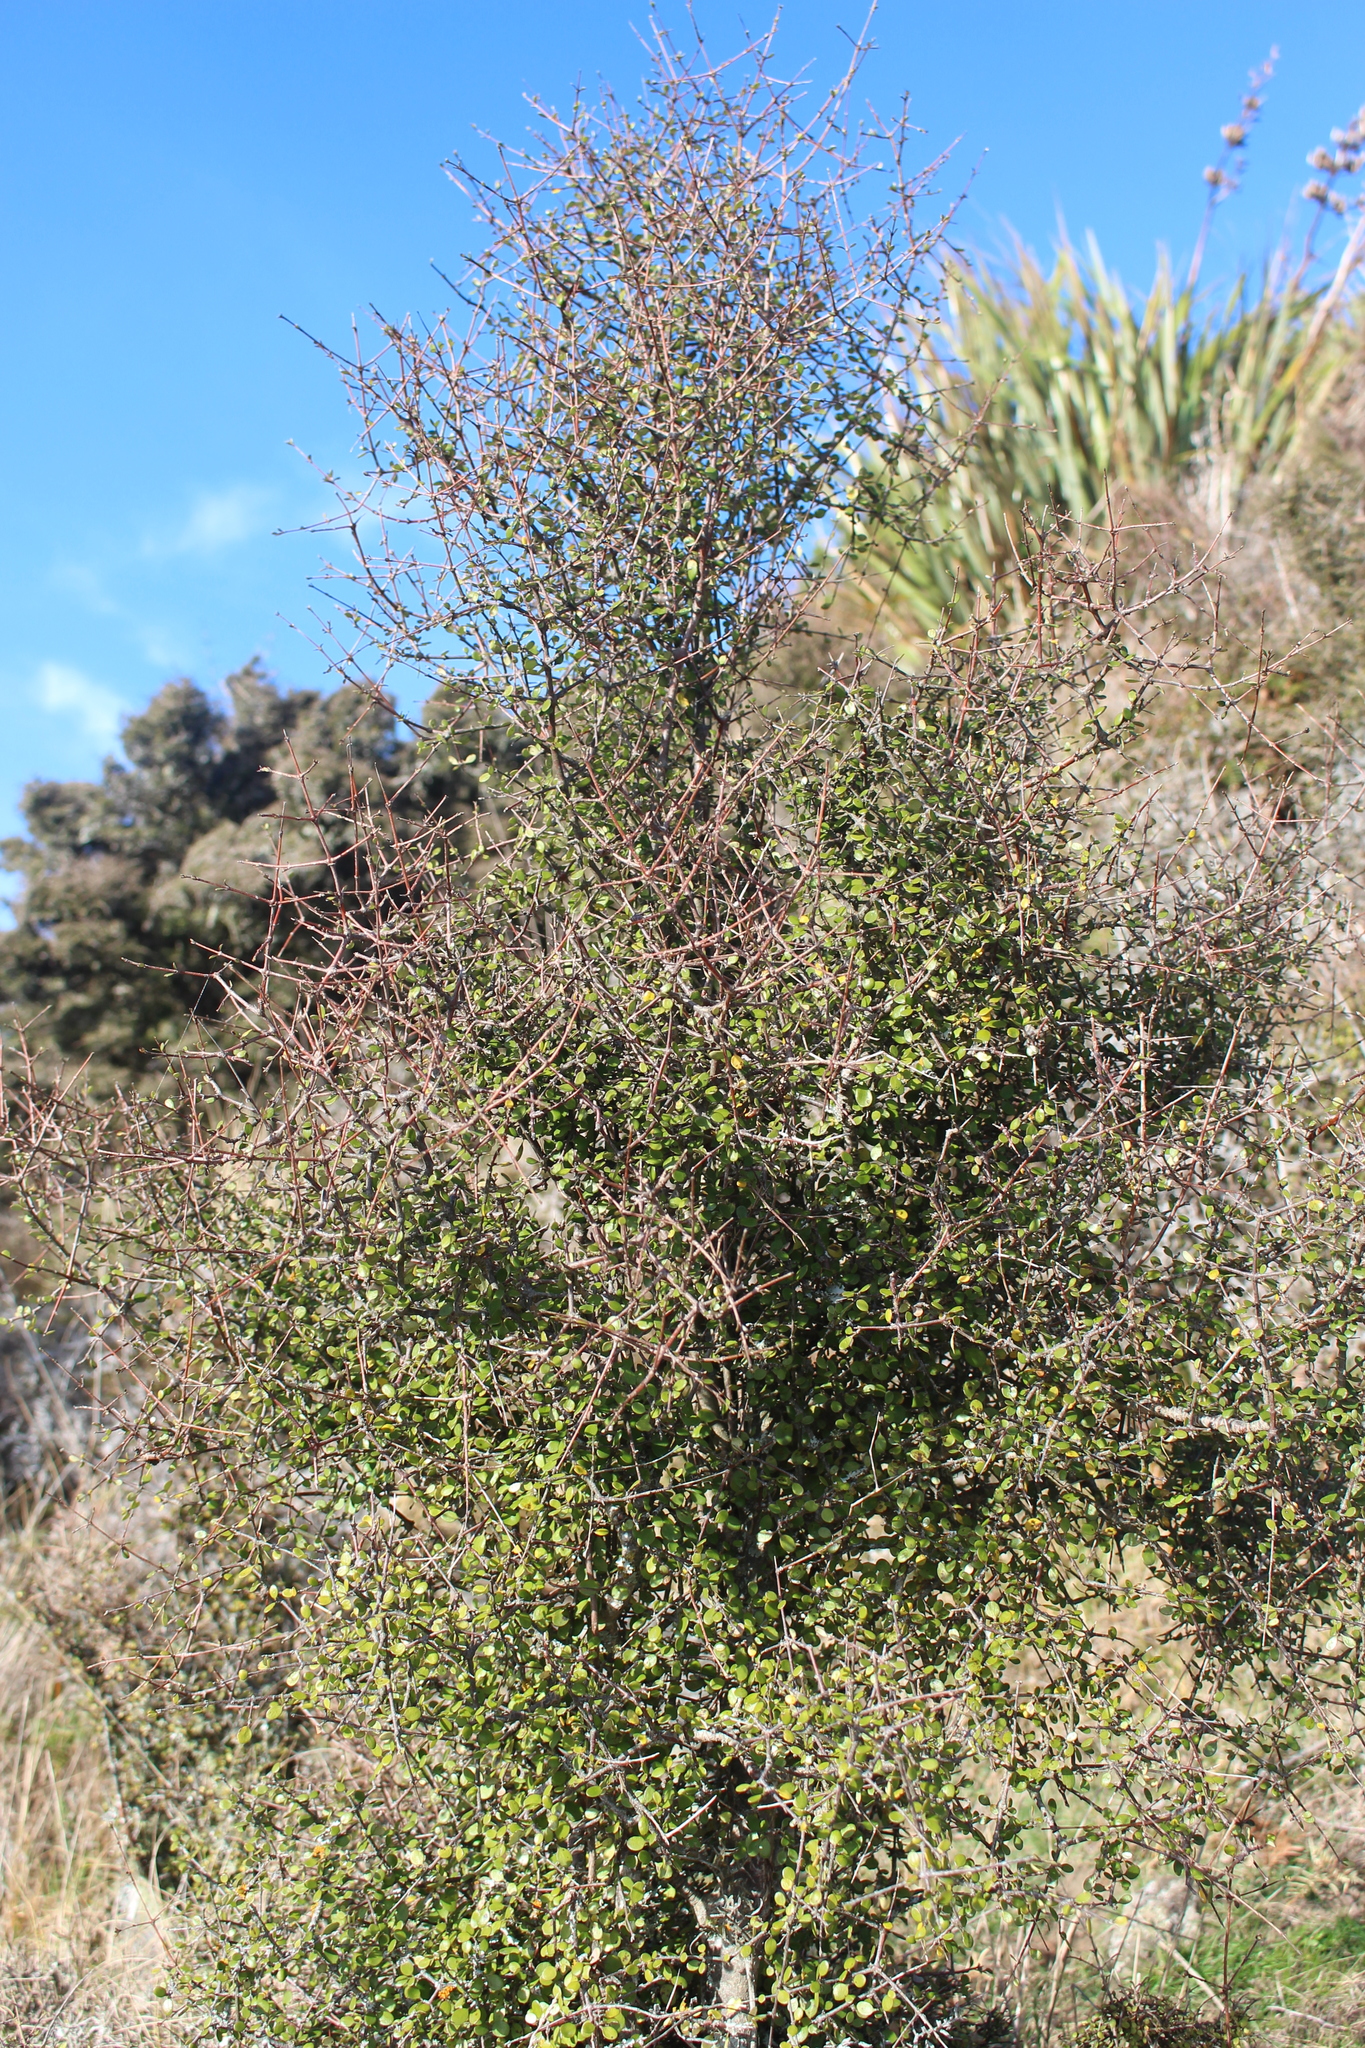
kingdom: Plantae
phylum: Tracheophyta
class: Magnoliopsida
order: Gentianales
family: Rubiaceae
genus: Coprosma
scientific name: Coprosma crassifolia
